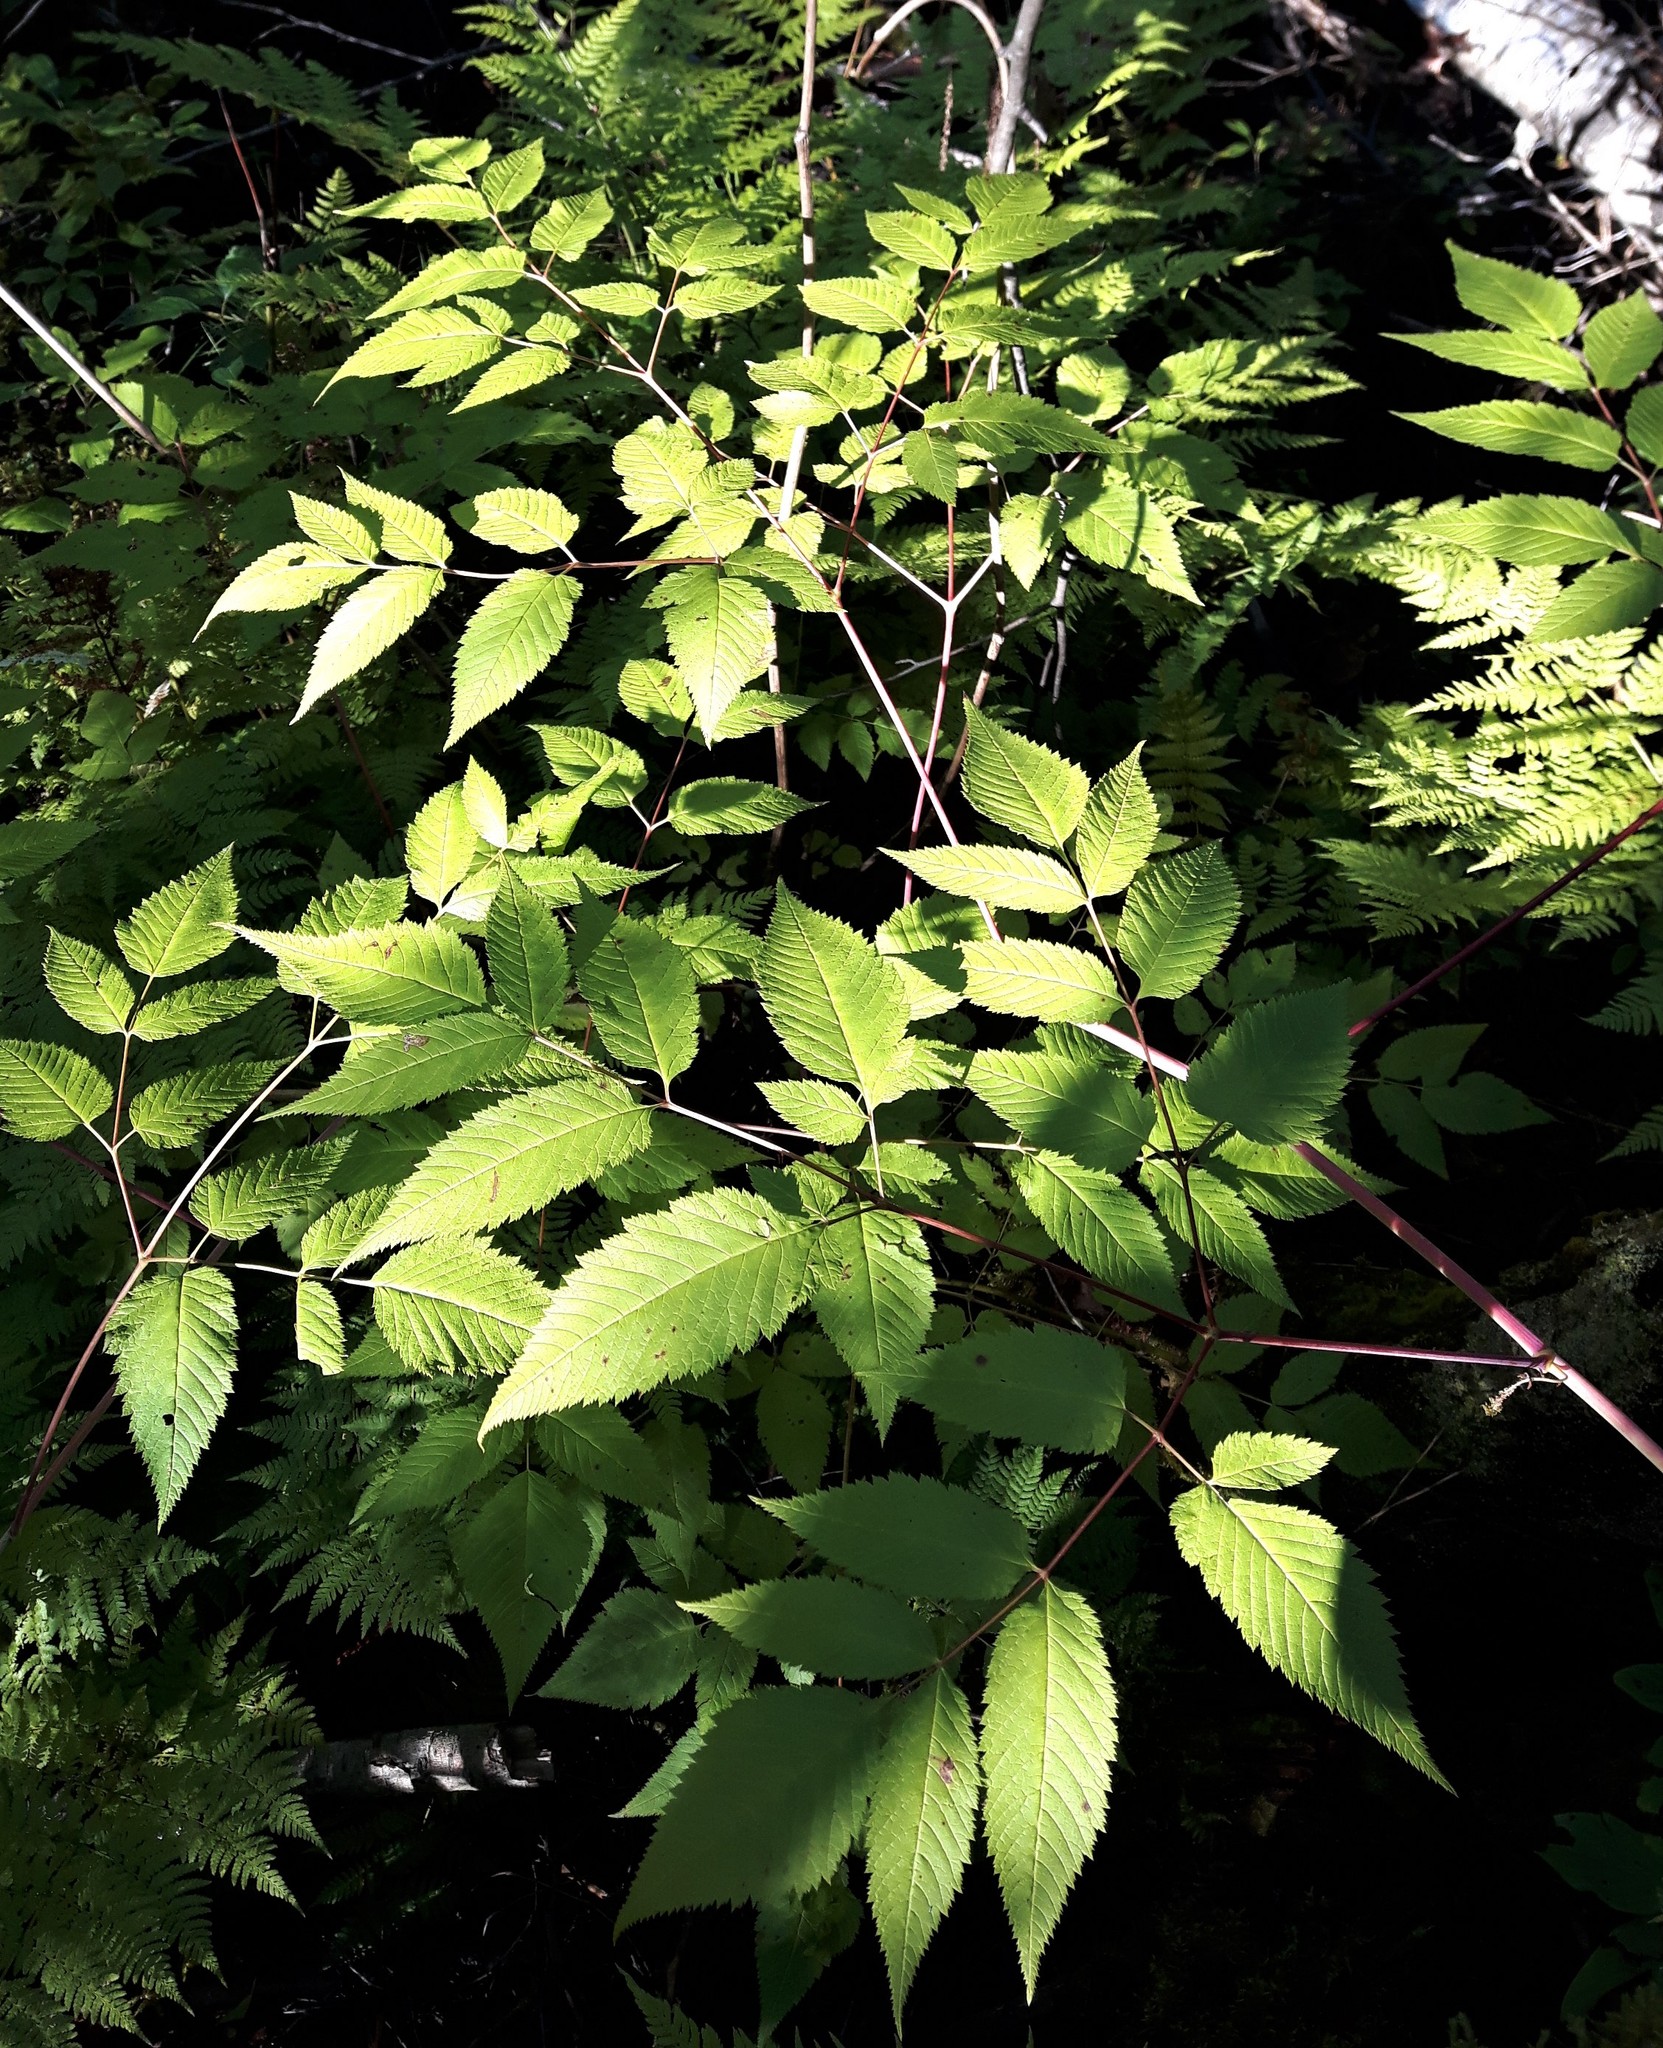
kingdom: Plantae
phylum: Tracheophyta
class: Magnoliopsida
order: Rosales
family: Rosaceae
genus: Aruncus
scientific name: Aruncus dioicus
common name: Buck's-beard
